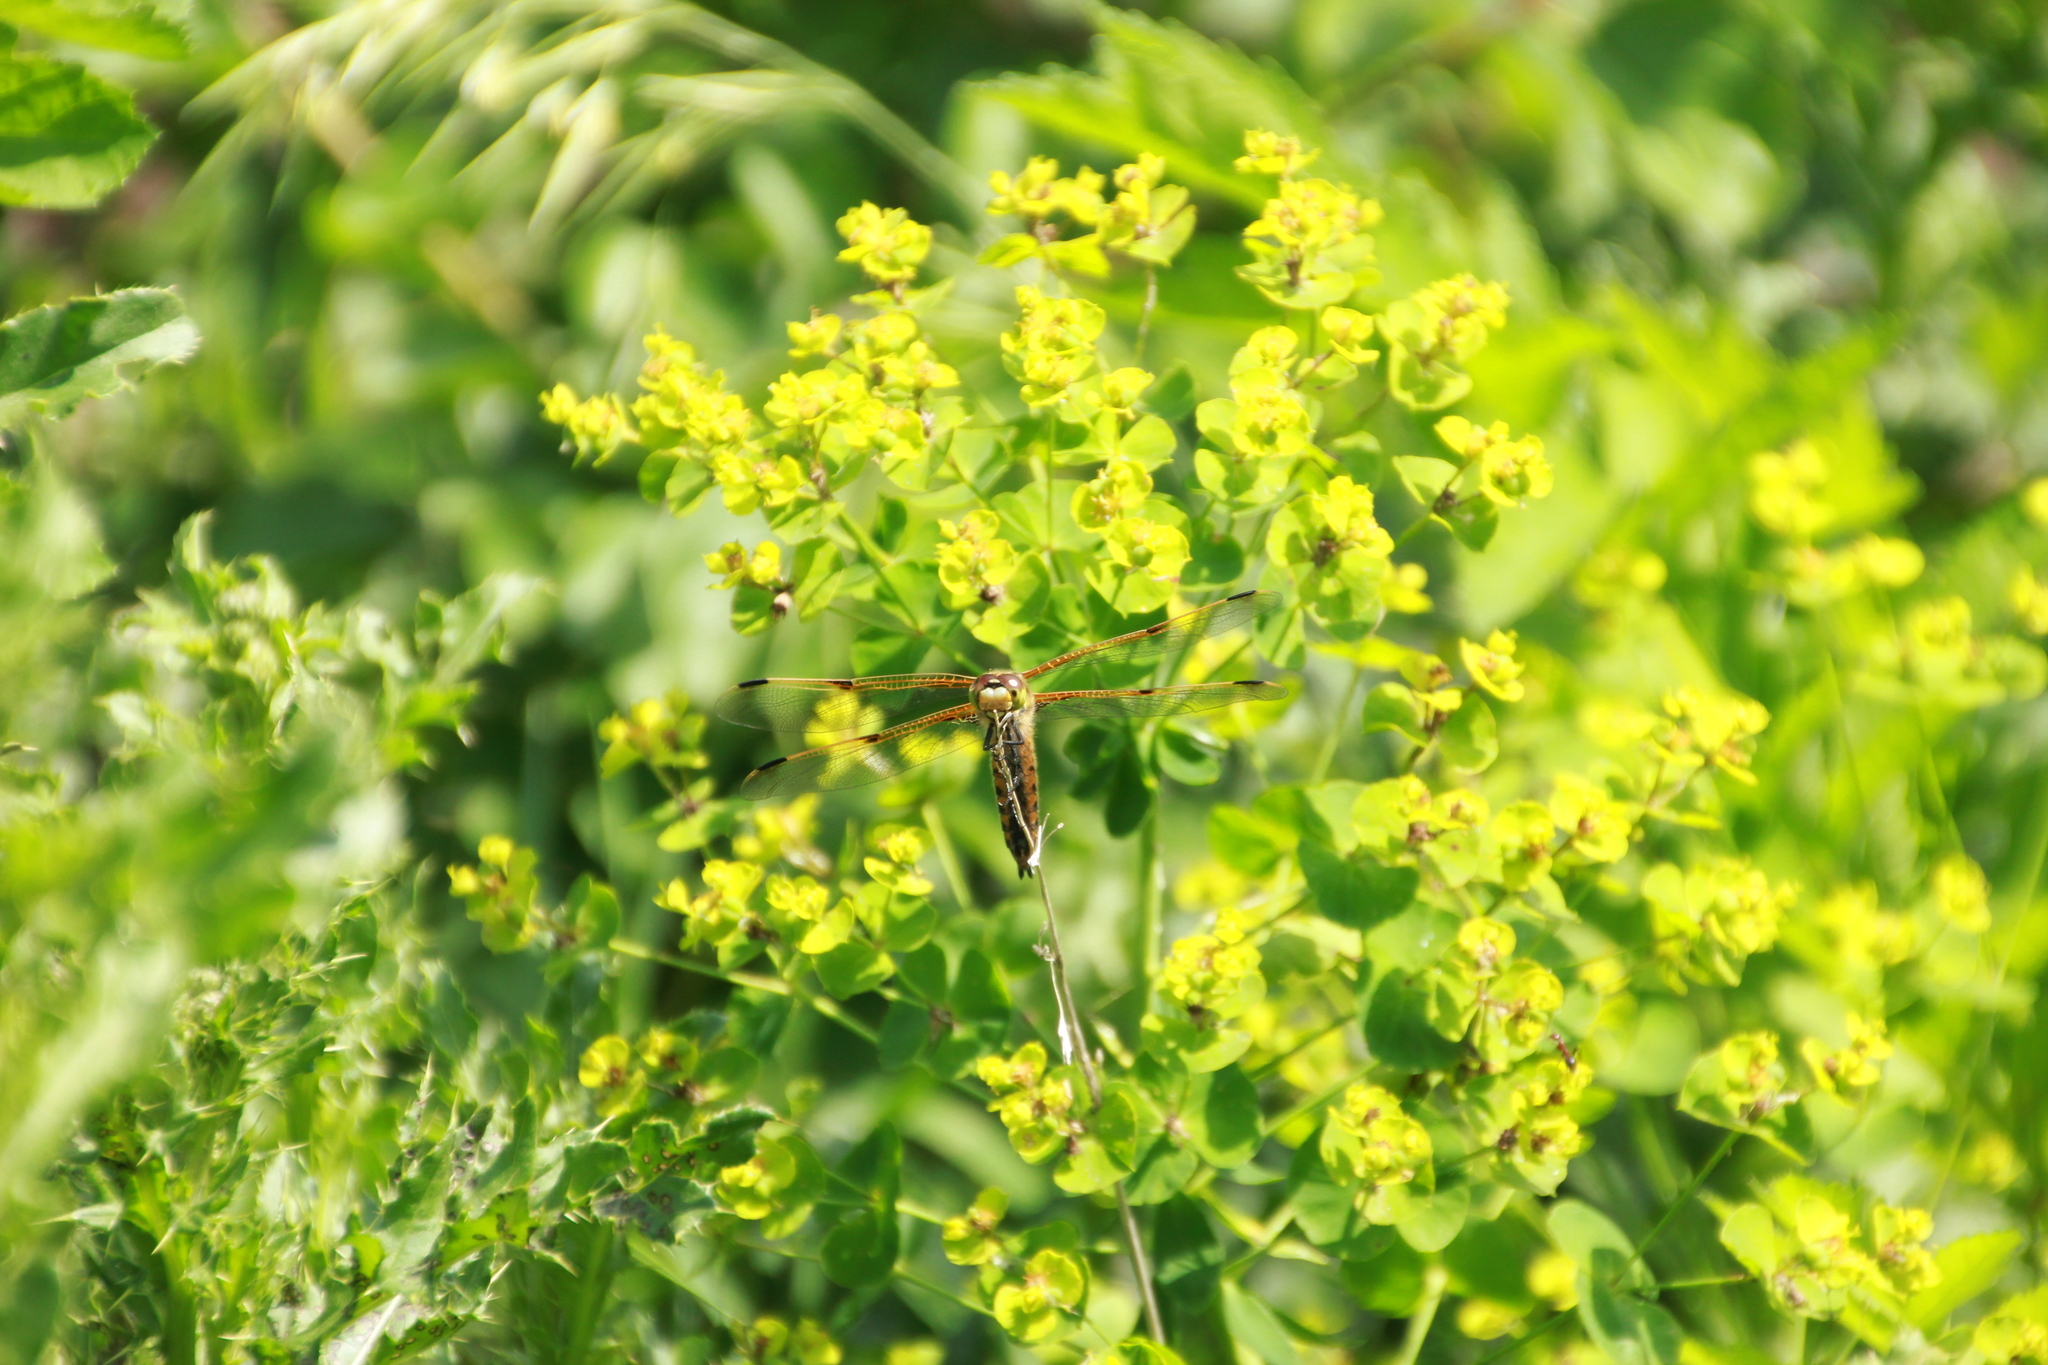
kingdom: Animalia
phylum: Arthropoda
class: Insecta
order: Odonata
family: Libellulidae
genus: Libellula
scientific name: Libellula quadrimaculata
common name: Four-spotted chaser
